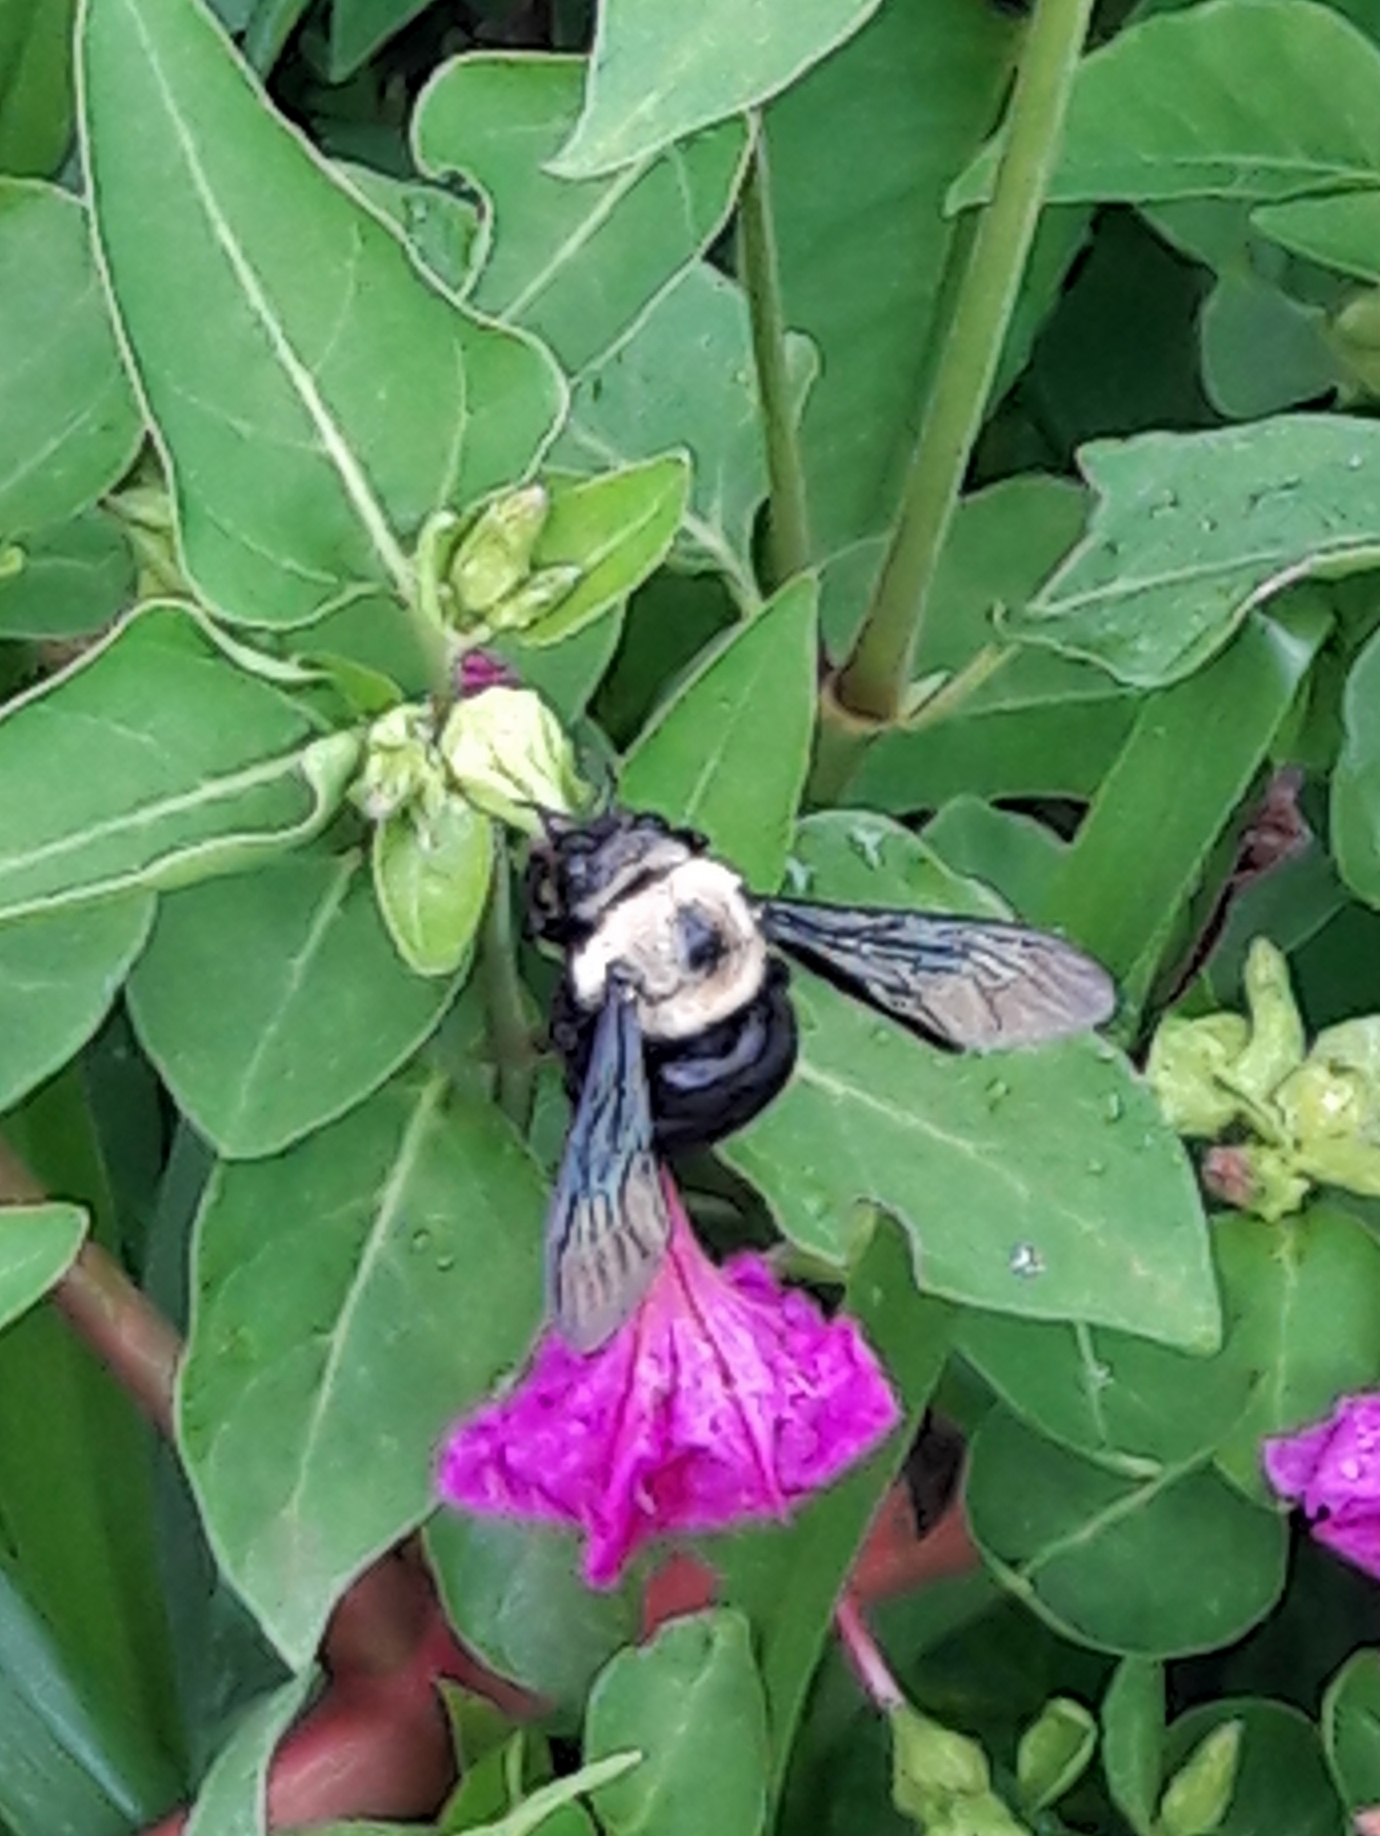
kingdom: Animalia
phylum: Arthropoda
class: Insecta
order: Hymenoptera
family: Apidae
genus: Xylocopa
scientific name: Xylocopa grisescens
